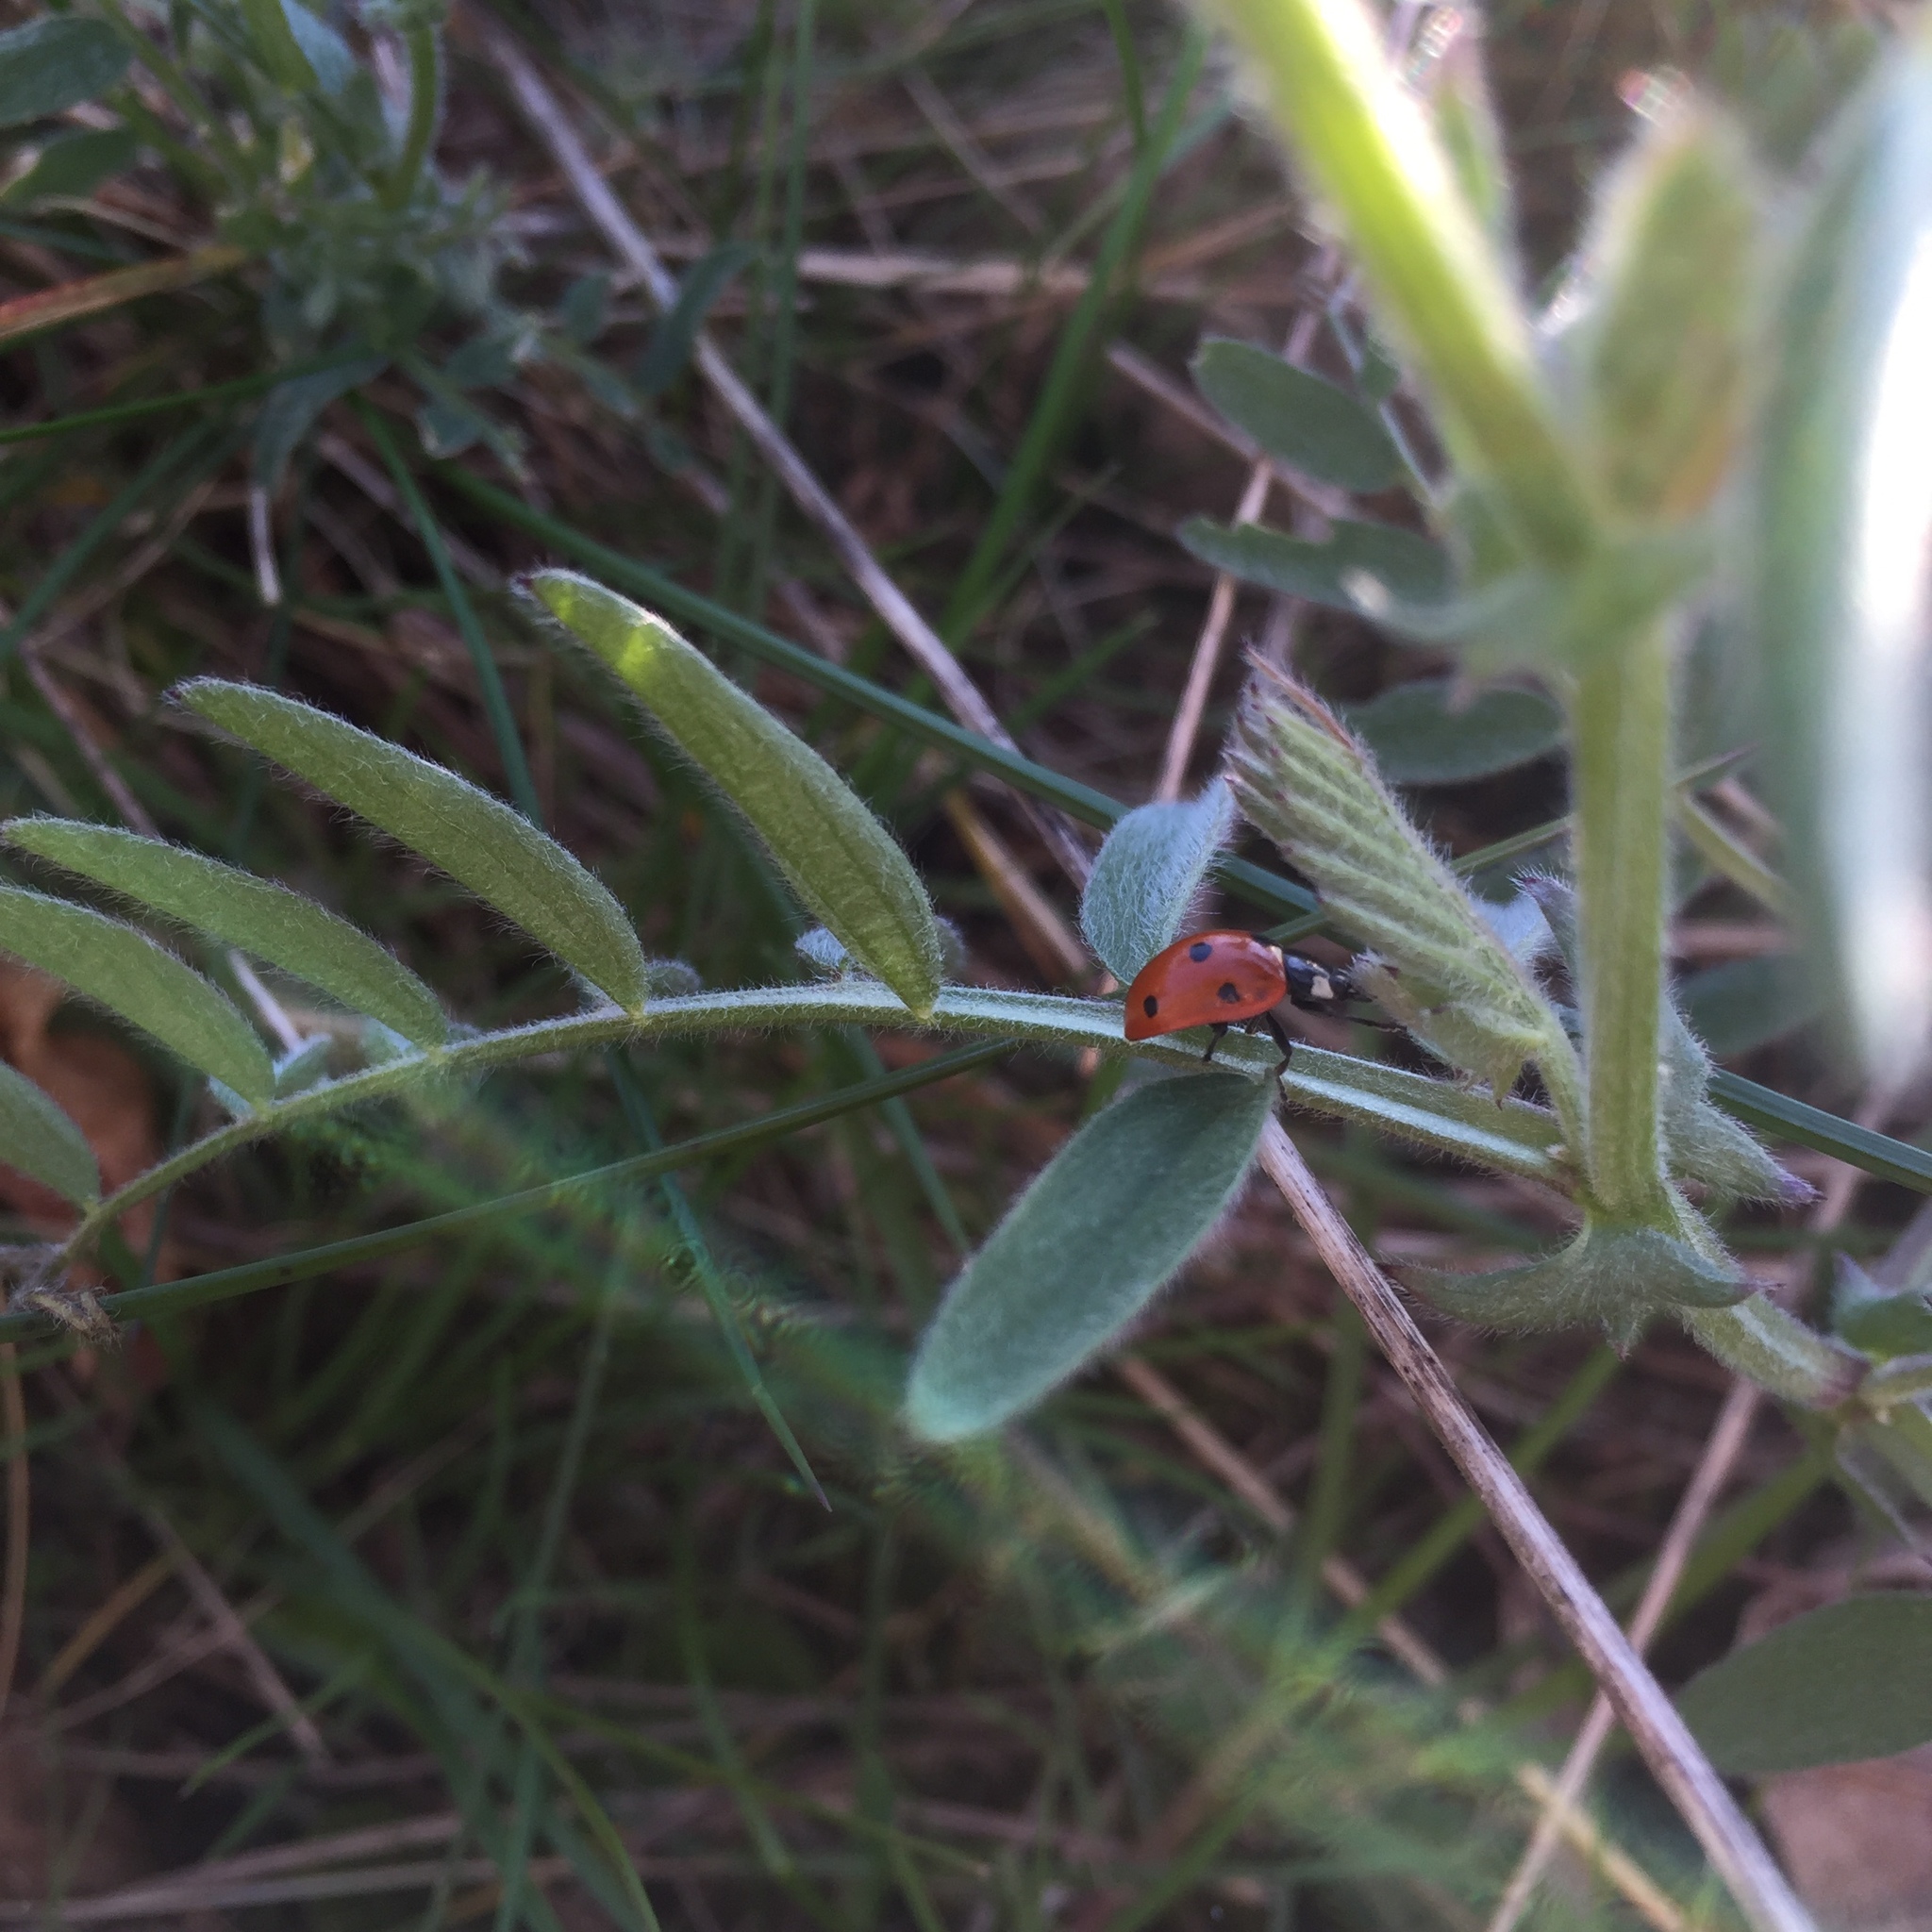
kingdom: Animalia
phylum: Arthropoda
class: Insecta
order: Coleoptera
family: Coccinellidae
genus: Coccinella
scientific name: Coccinella septempunctata
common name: Sevenspotted lady beetle
